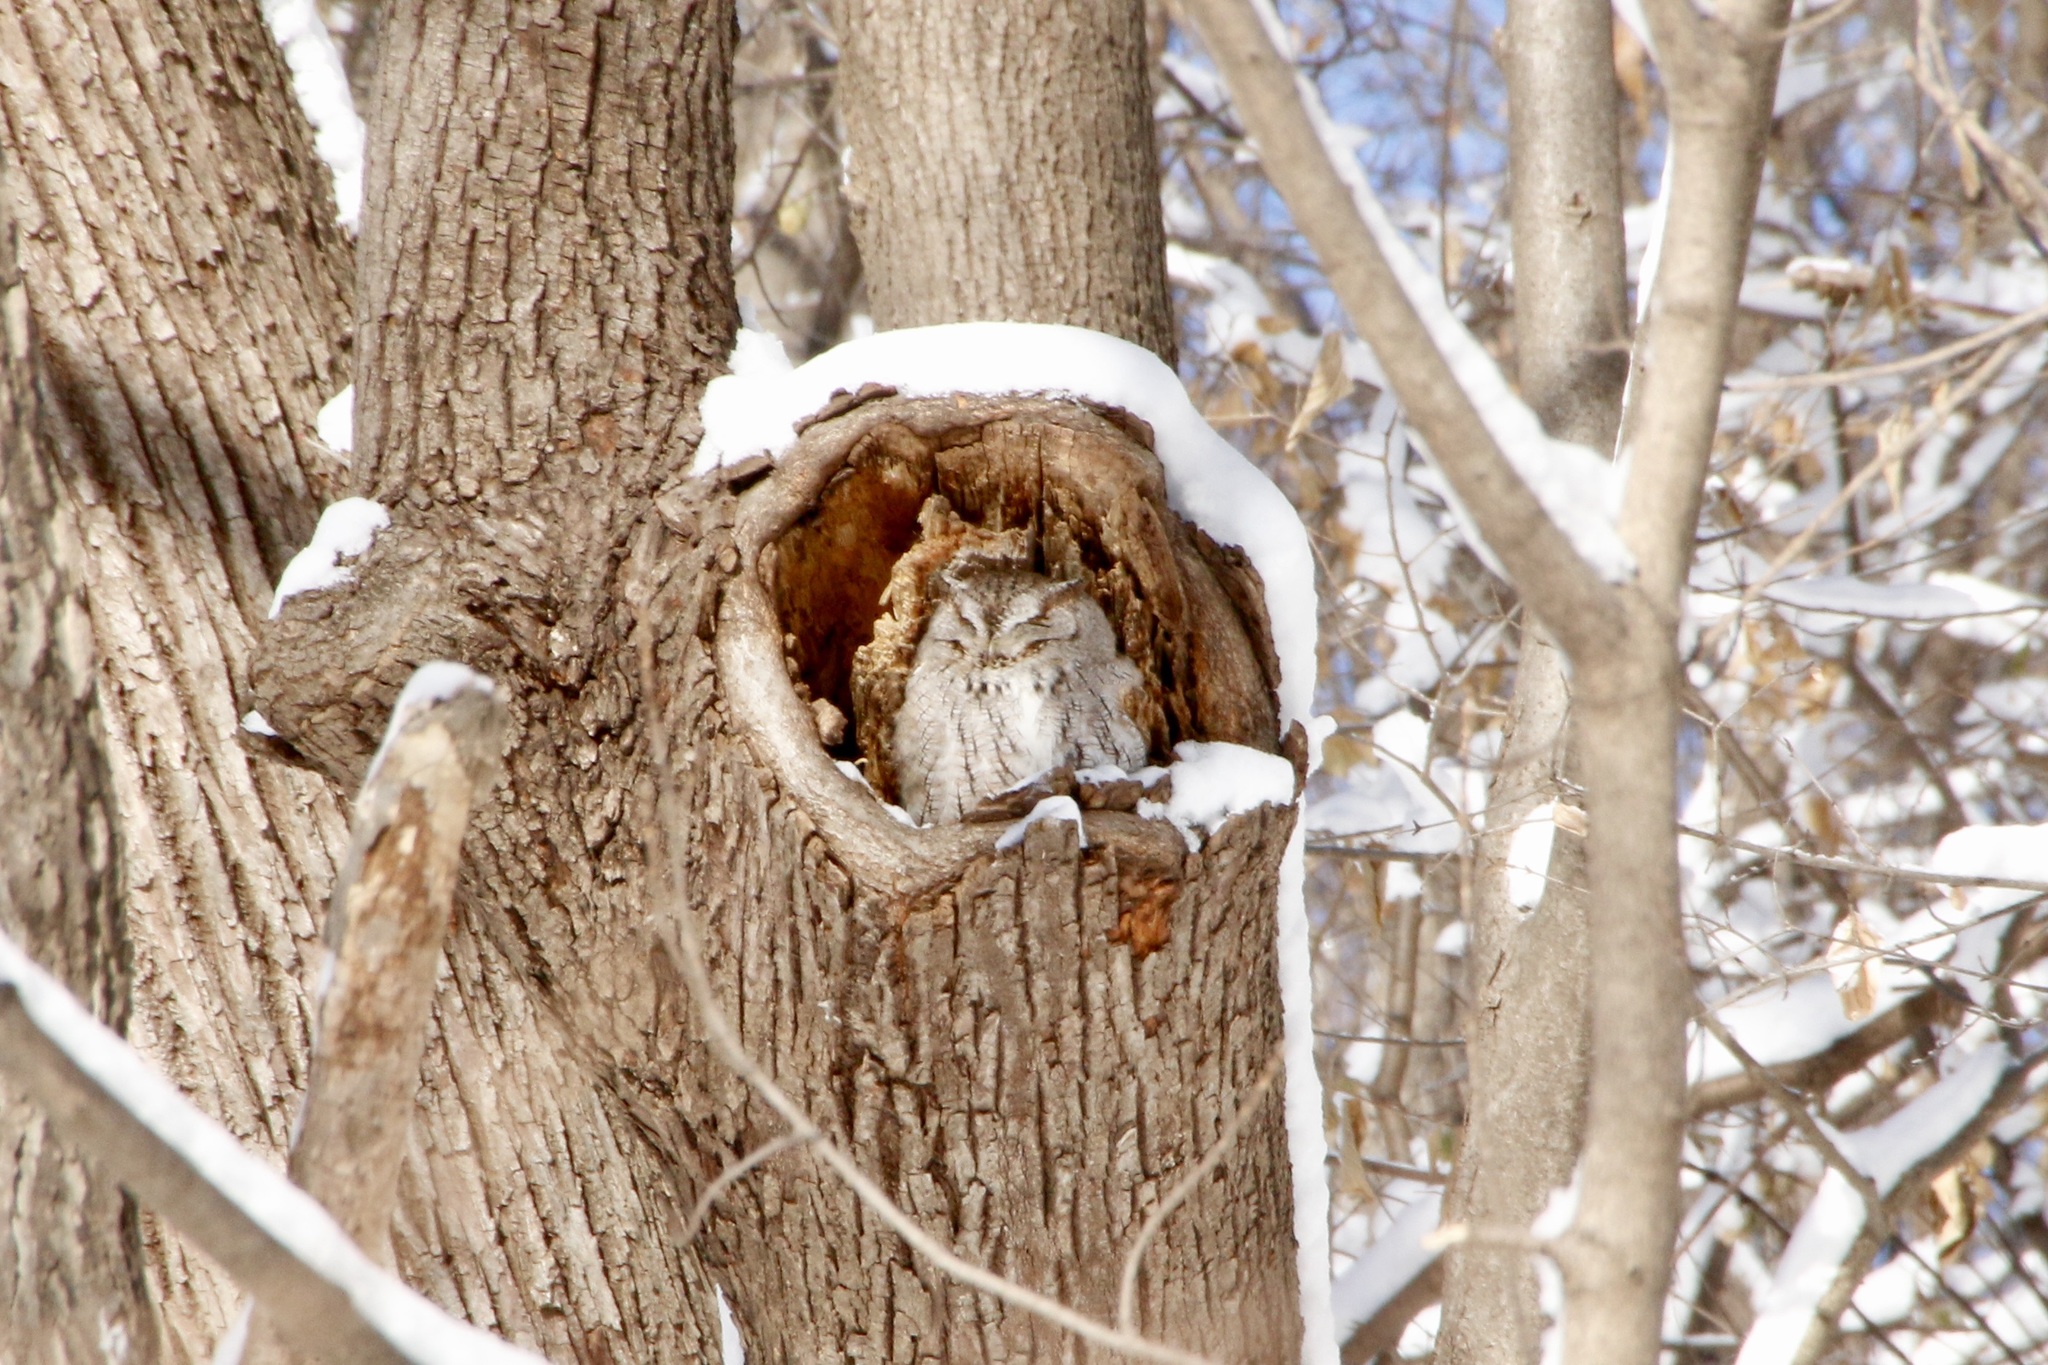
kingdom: Animalia
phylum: Chordata
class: Aves
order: Strigiformes
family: Strigidae
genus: Megascops
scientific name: Megascops asio
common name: Eastern screech-owl
